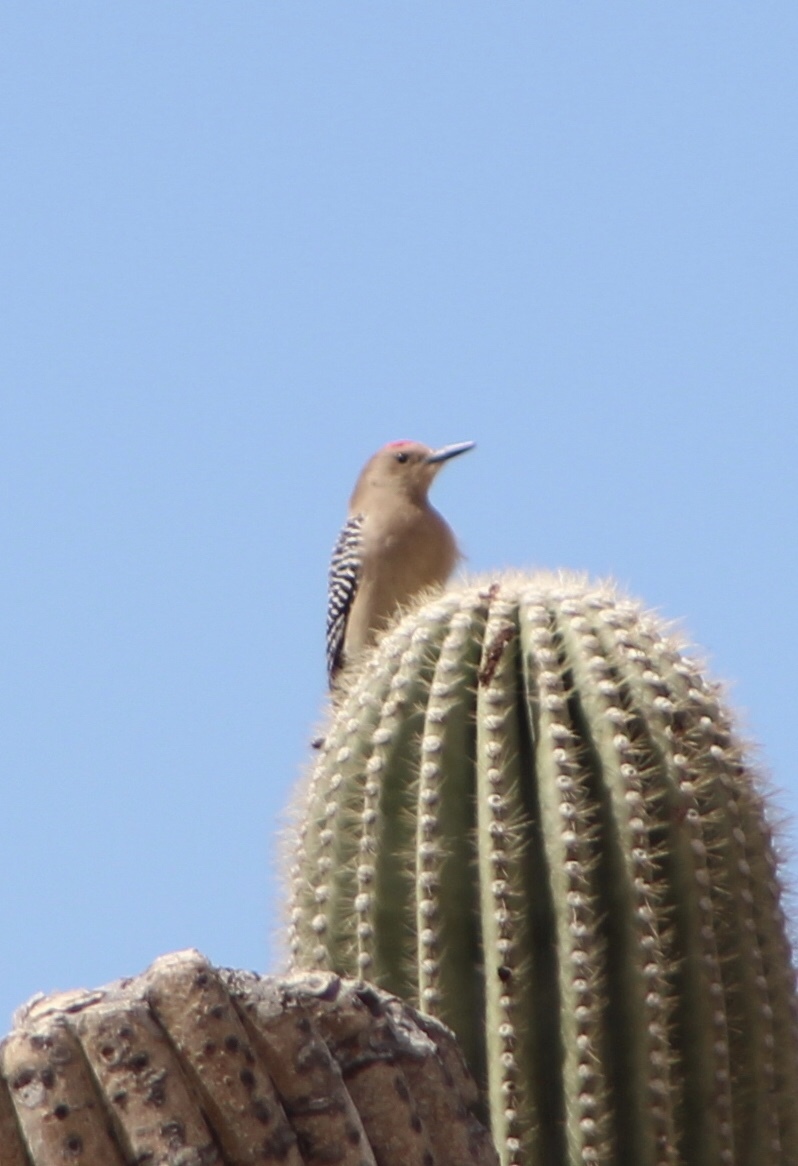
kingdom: Animalia
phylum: Chordata
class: Aves
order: Piciformes
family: Picidae
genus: Melanerpes
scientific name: Melanerpes uropygialis
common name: Gila woodpecker
